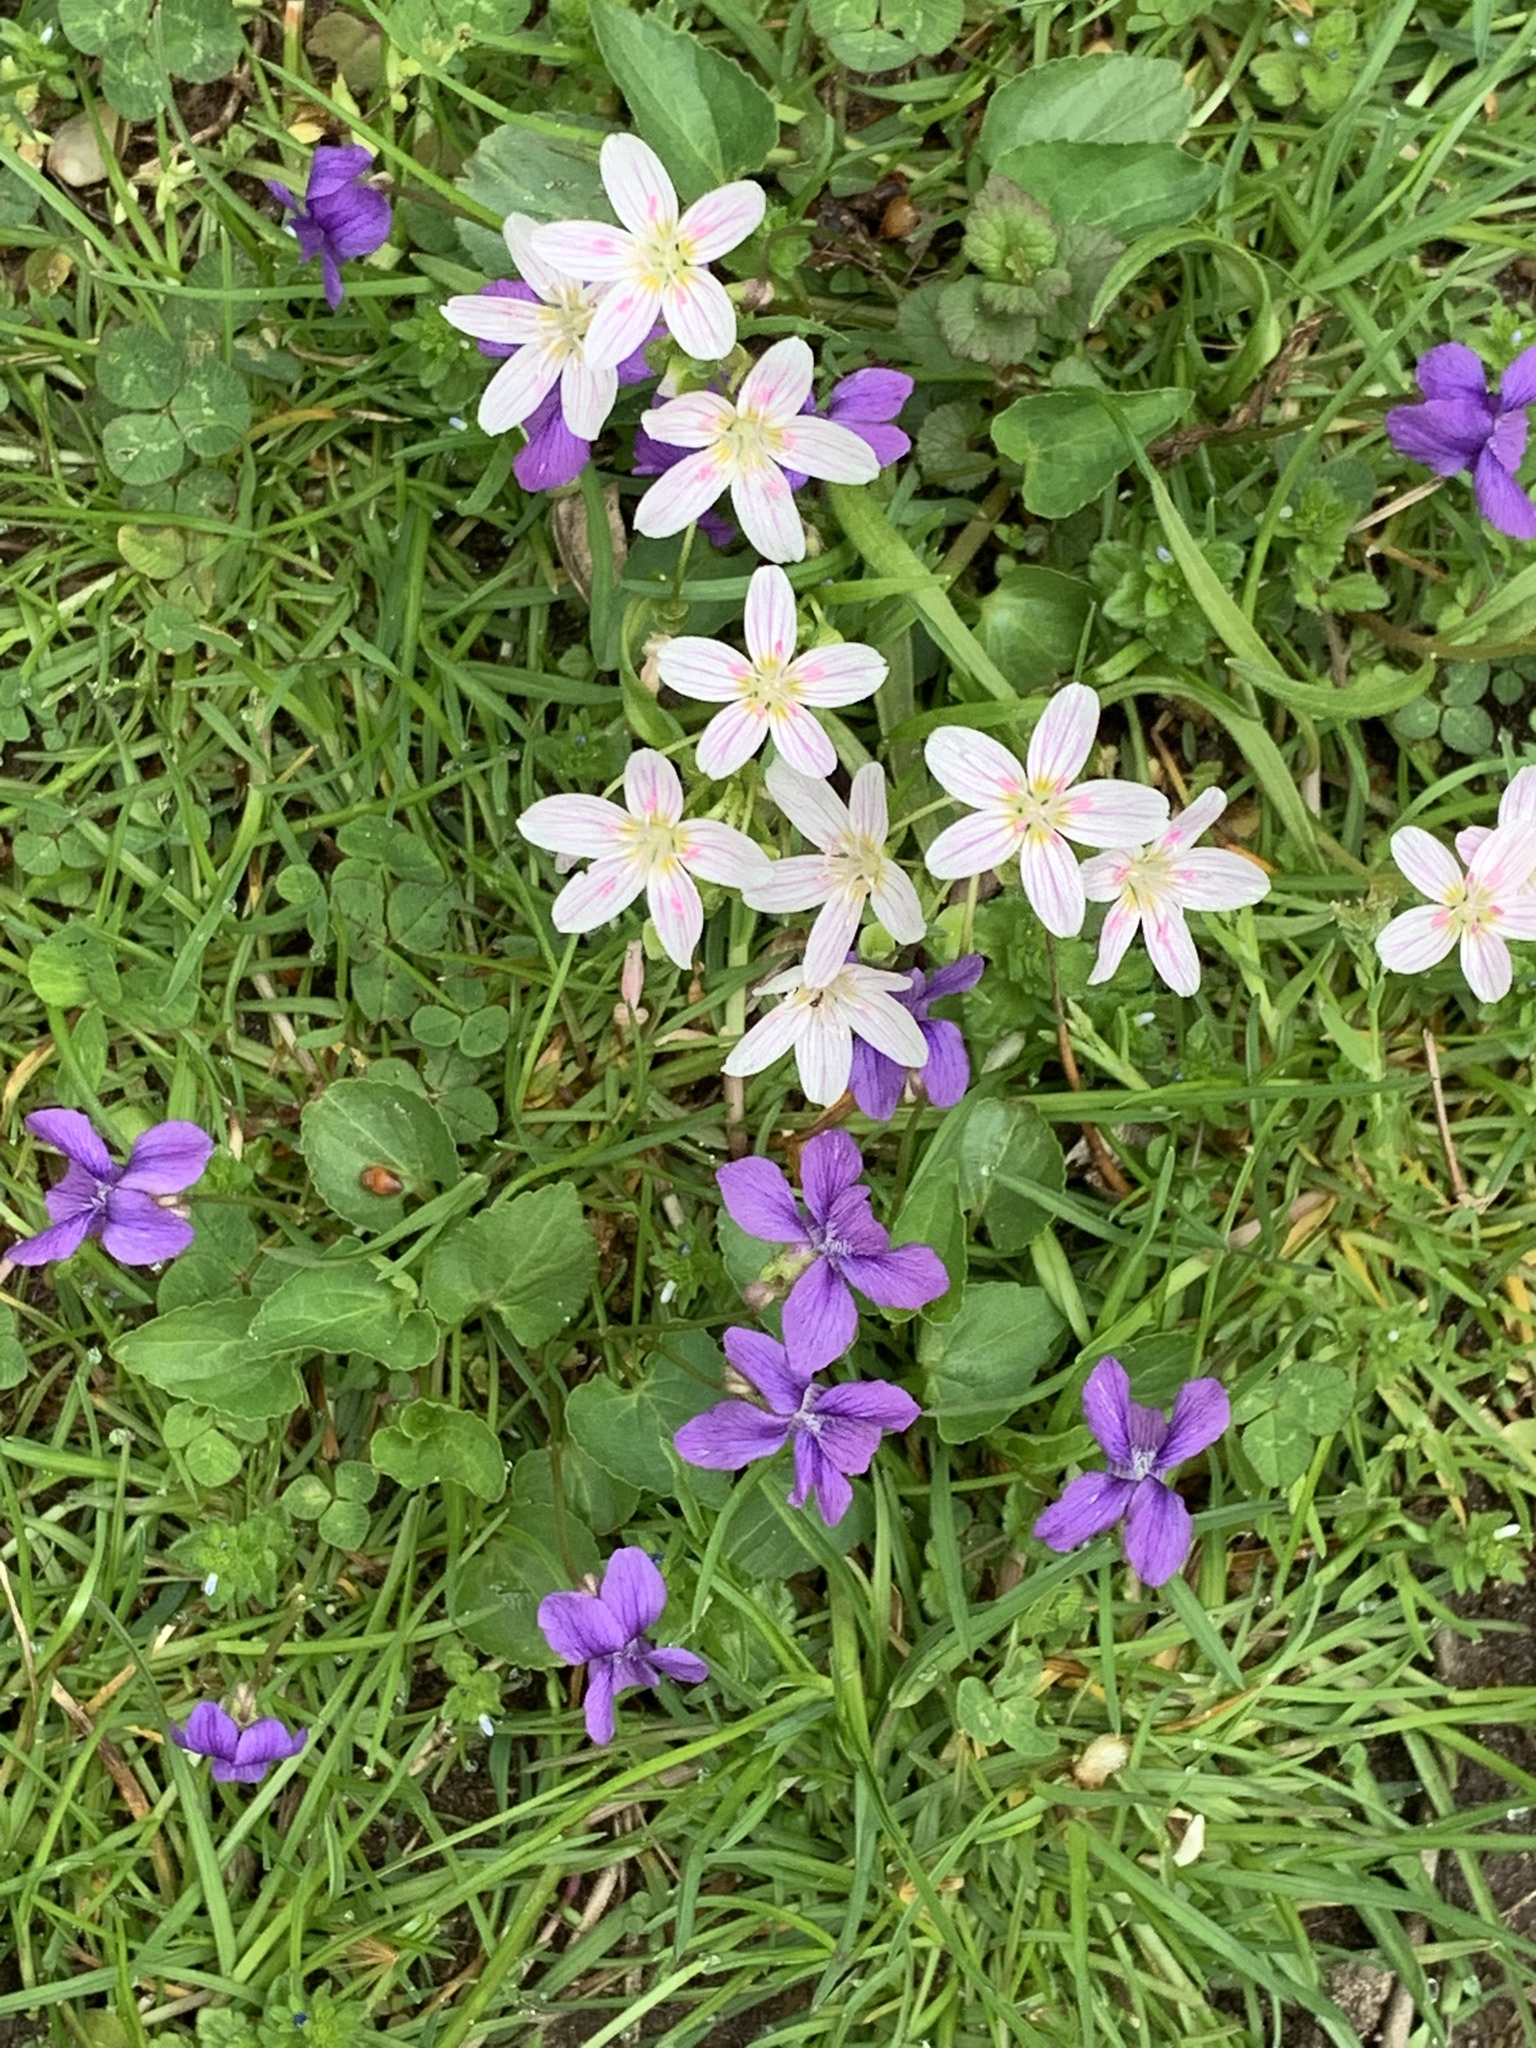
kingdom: Plantae
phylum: Tracheophyta
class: Magnoliopsida
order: Caryophyllales
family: Montiaceae
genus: Claytonia
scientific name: Claytonia virginica
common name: Virginia springbeauty
